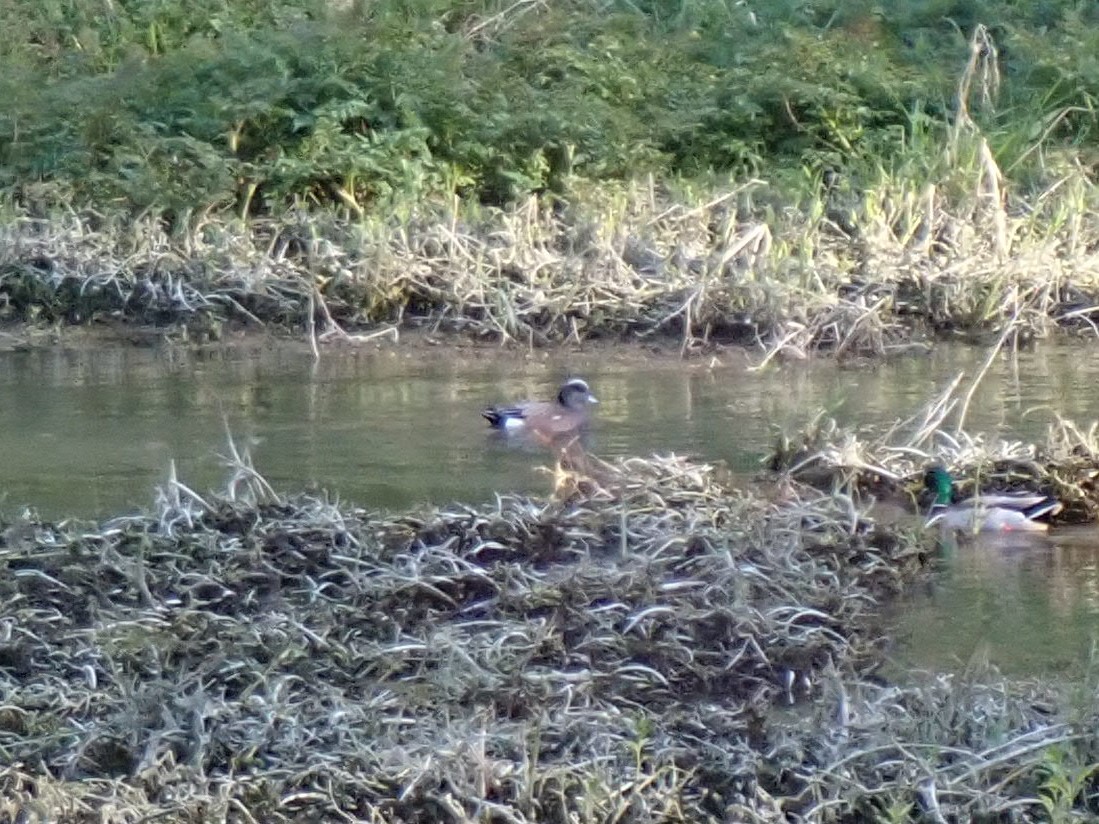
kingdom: Animalia
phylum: Chordata
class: Aves
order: Anseriformes
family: Anatidae
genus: Mareca
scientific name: Mareca americana
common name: American wigeon
